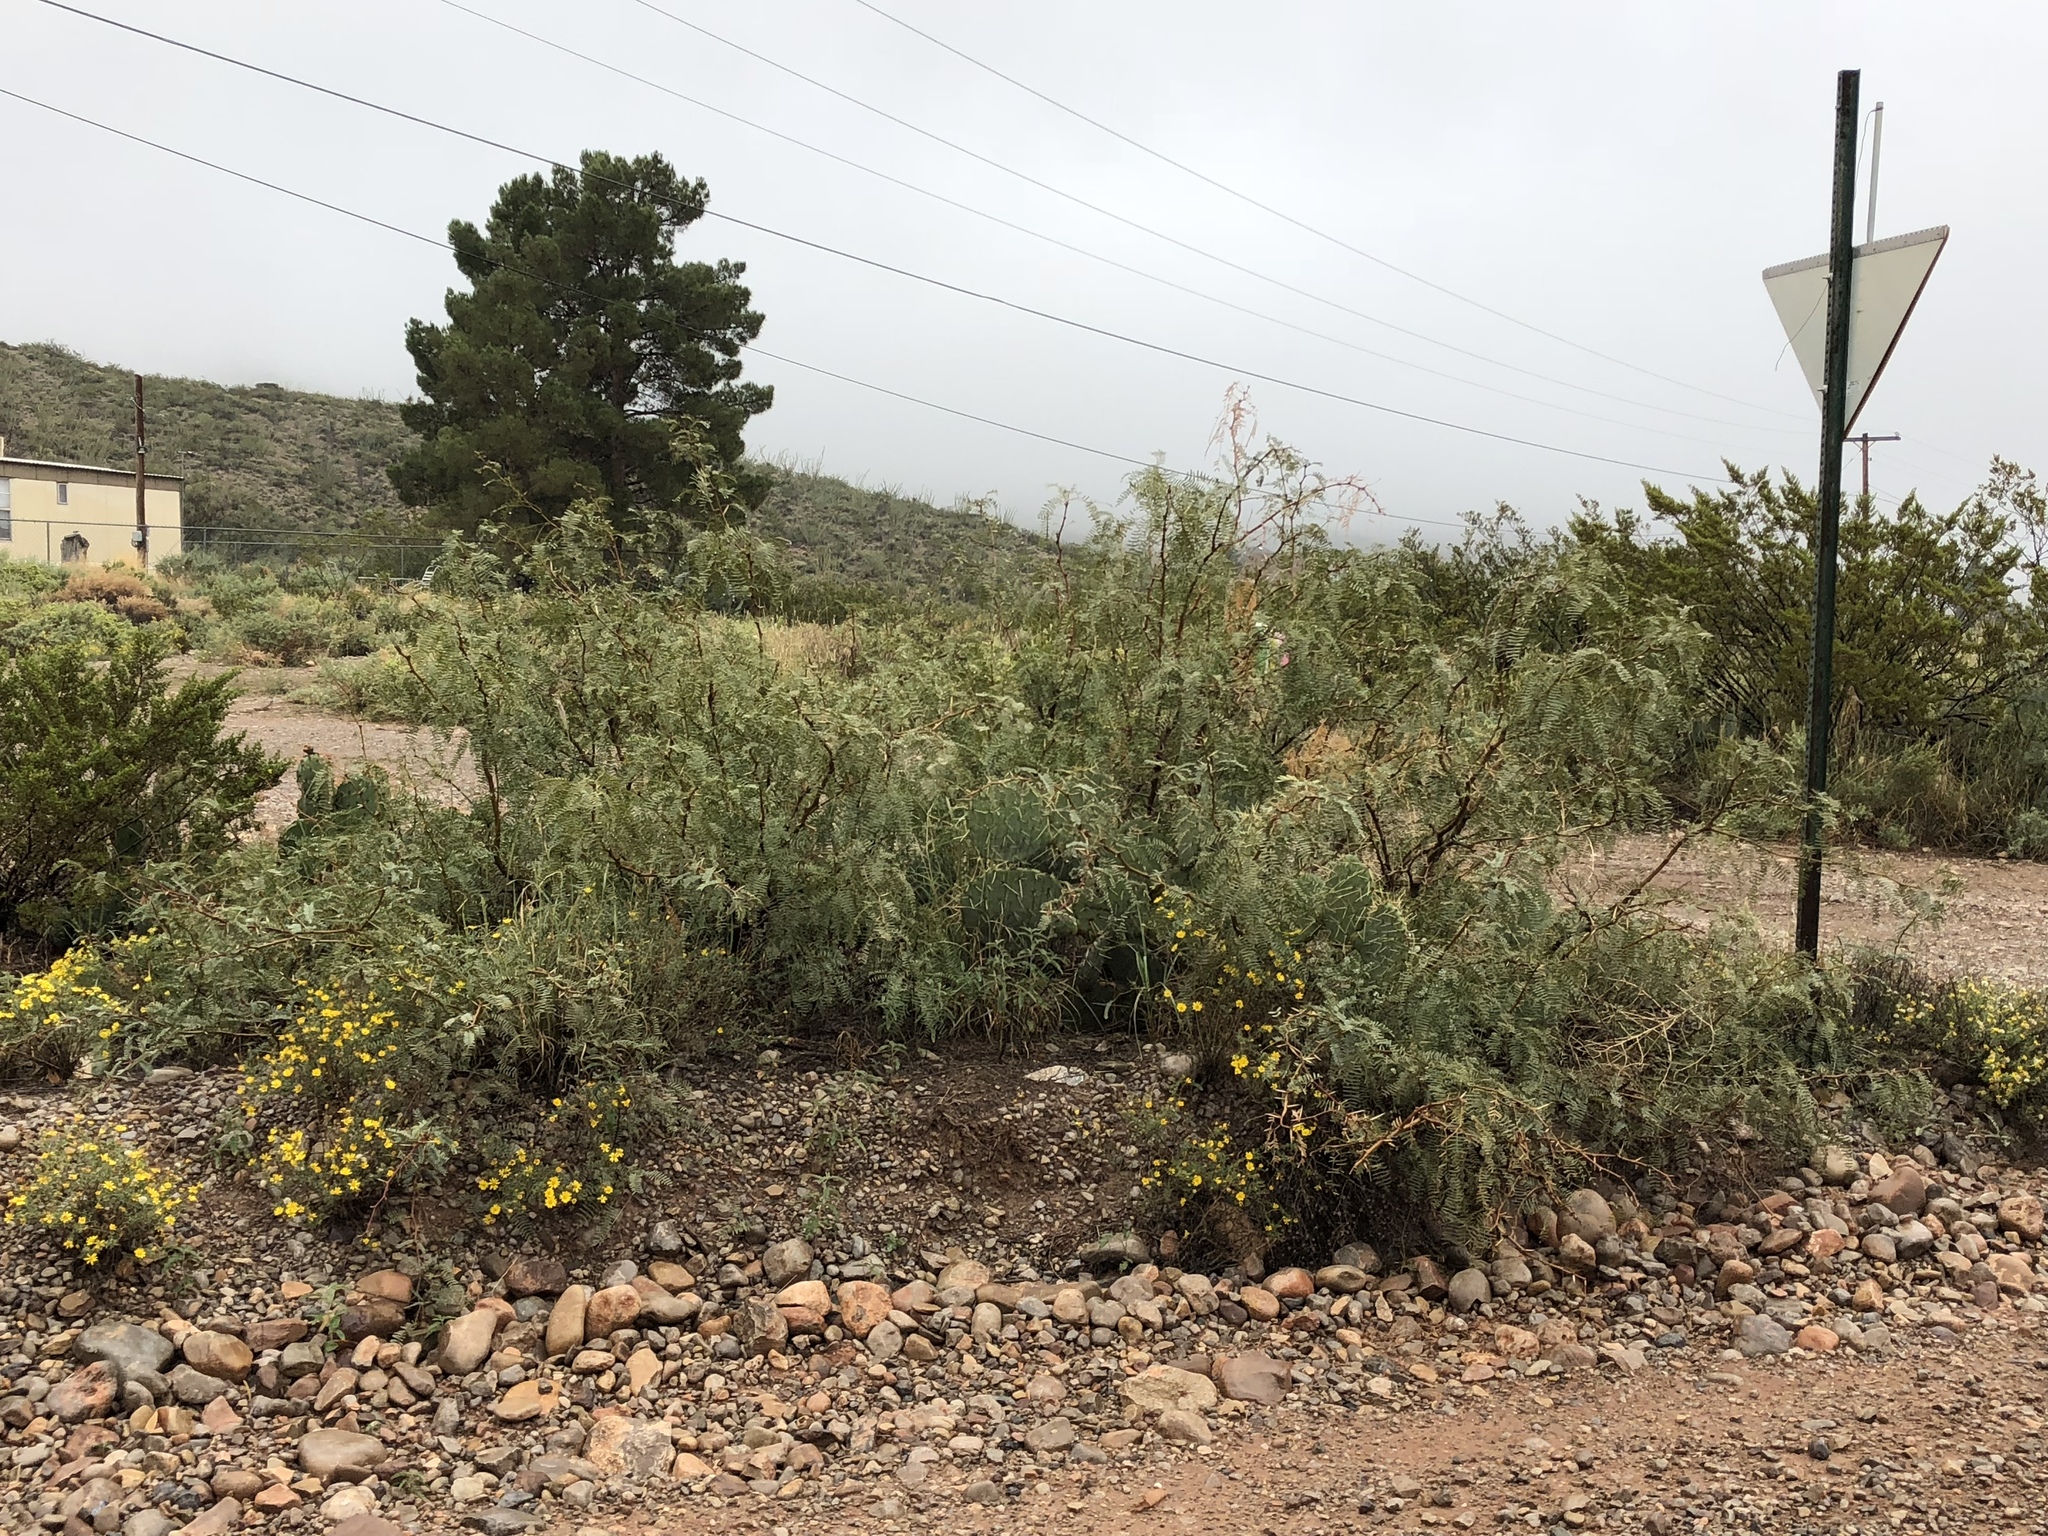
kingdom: Plantae
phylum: Tracheophyta
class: Magnoliopsida
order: Fabales
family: Fabaceae
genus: Prosopis
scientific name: Prosopis glandulosa
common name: Honey mesquite
